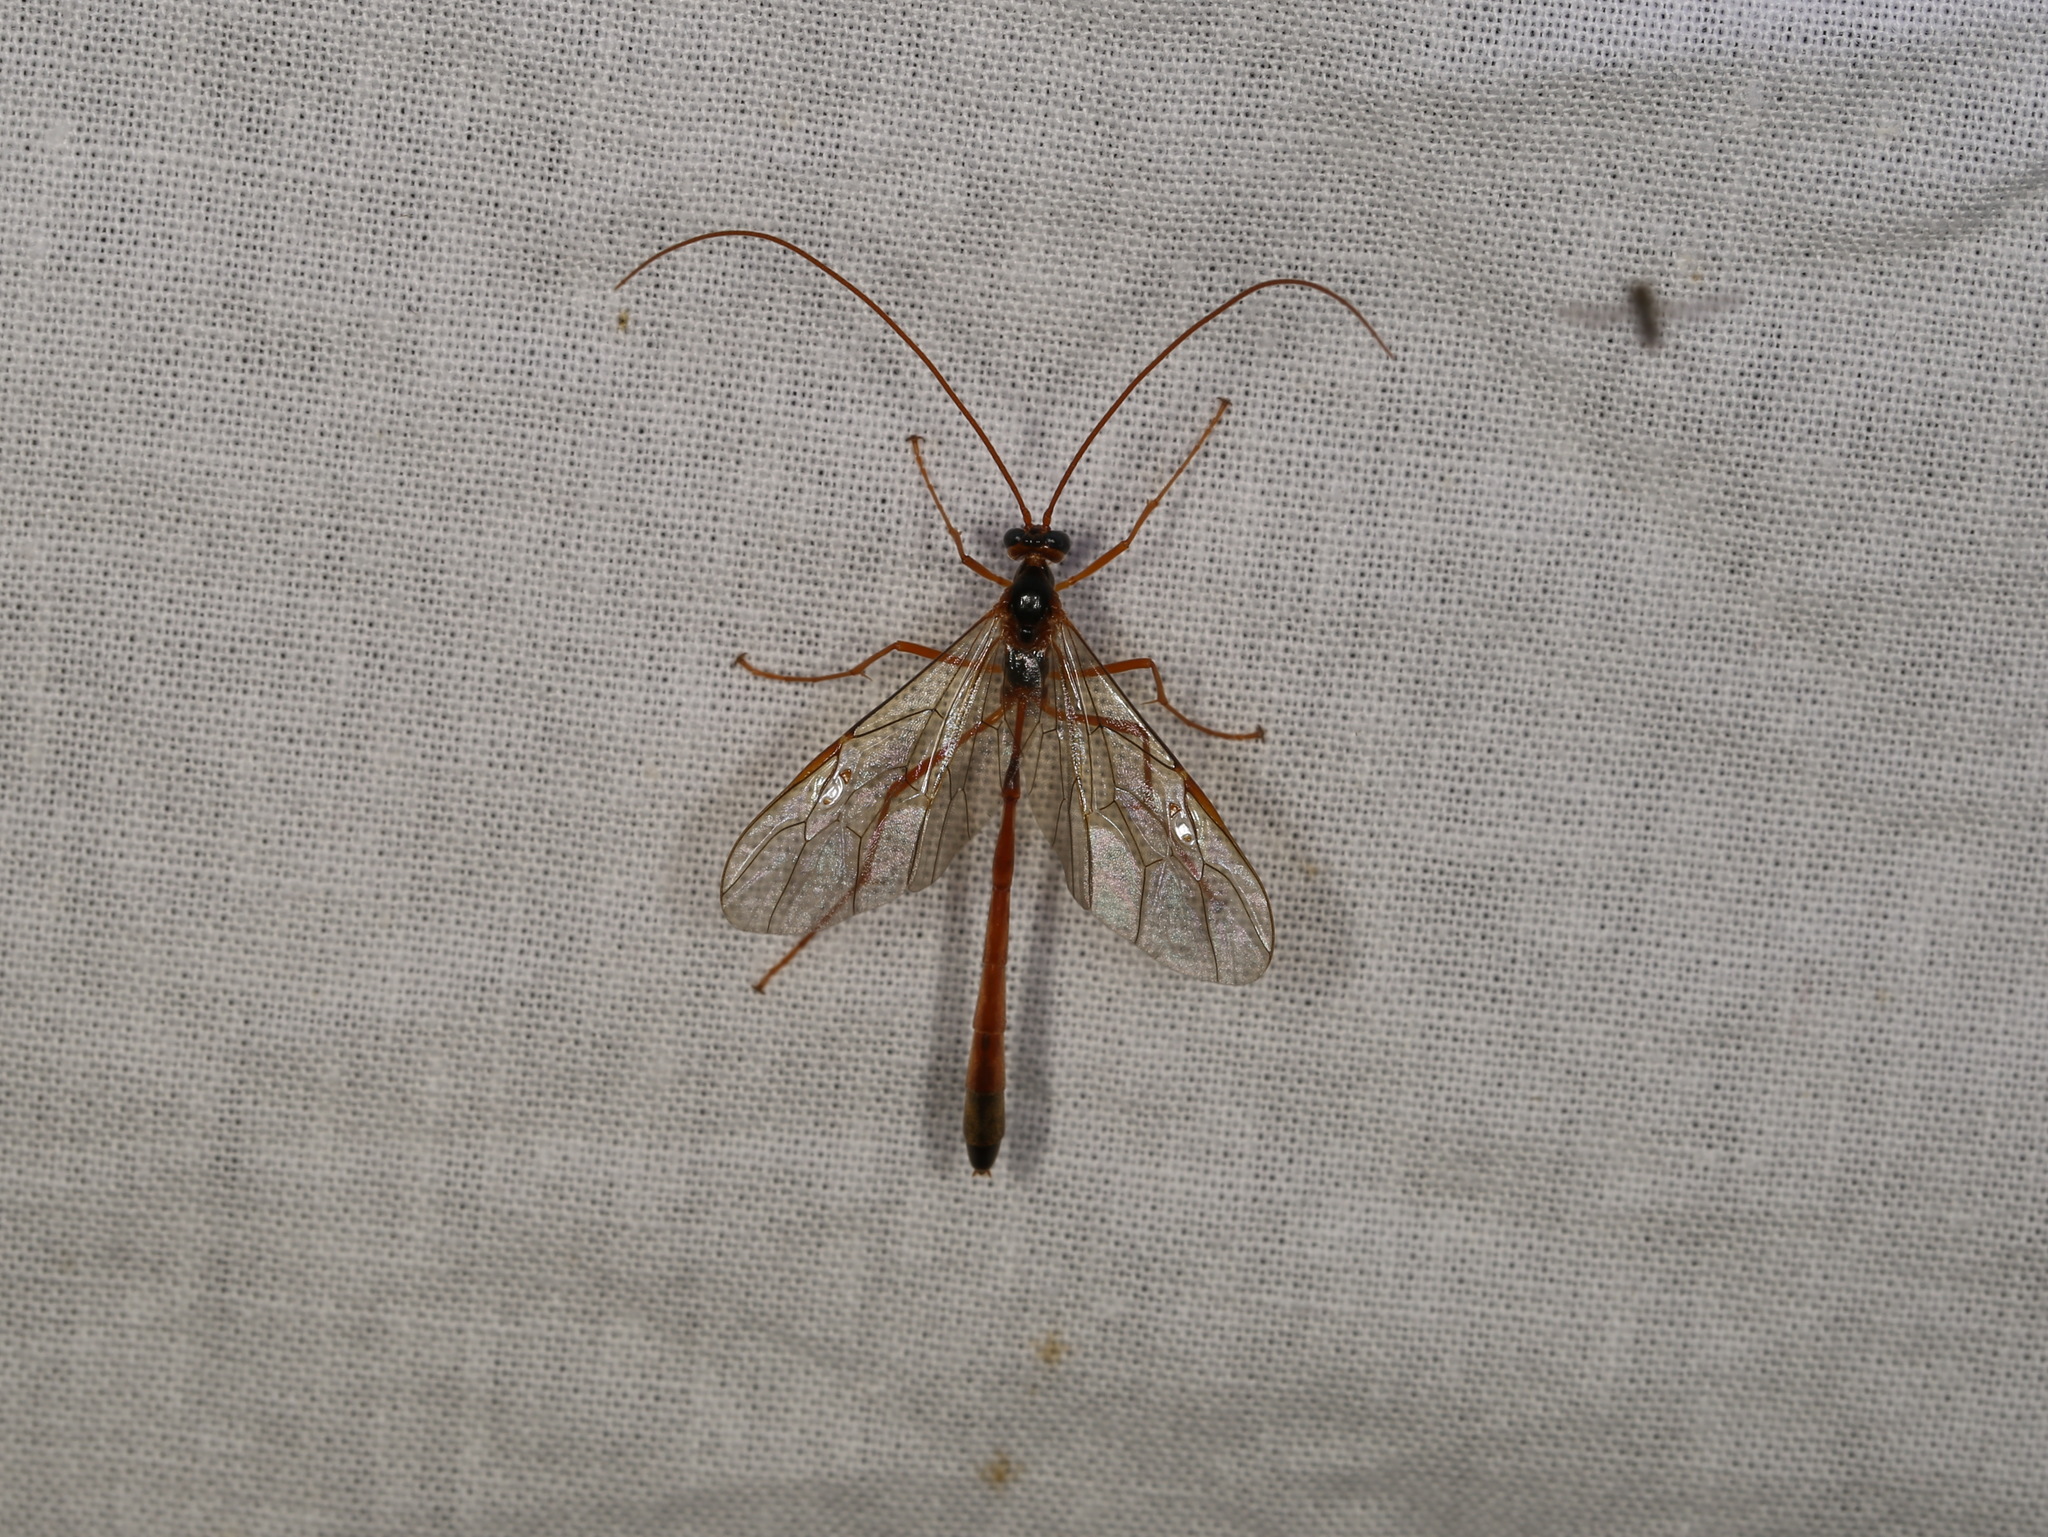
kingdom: Animalia
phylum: Arthropoda
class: Insecta
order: Hymenoptera
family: Ichneumonidae
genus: Enicospilus
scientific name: Enicospilus combustus
